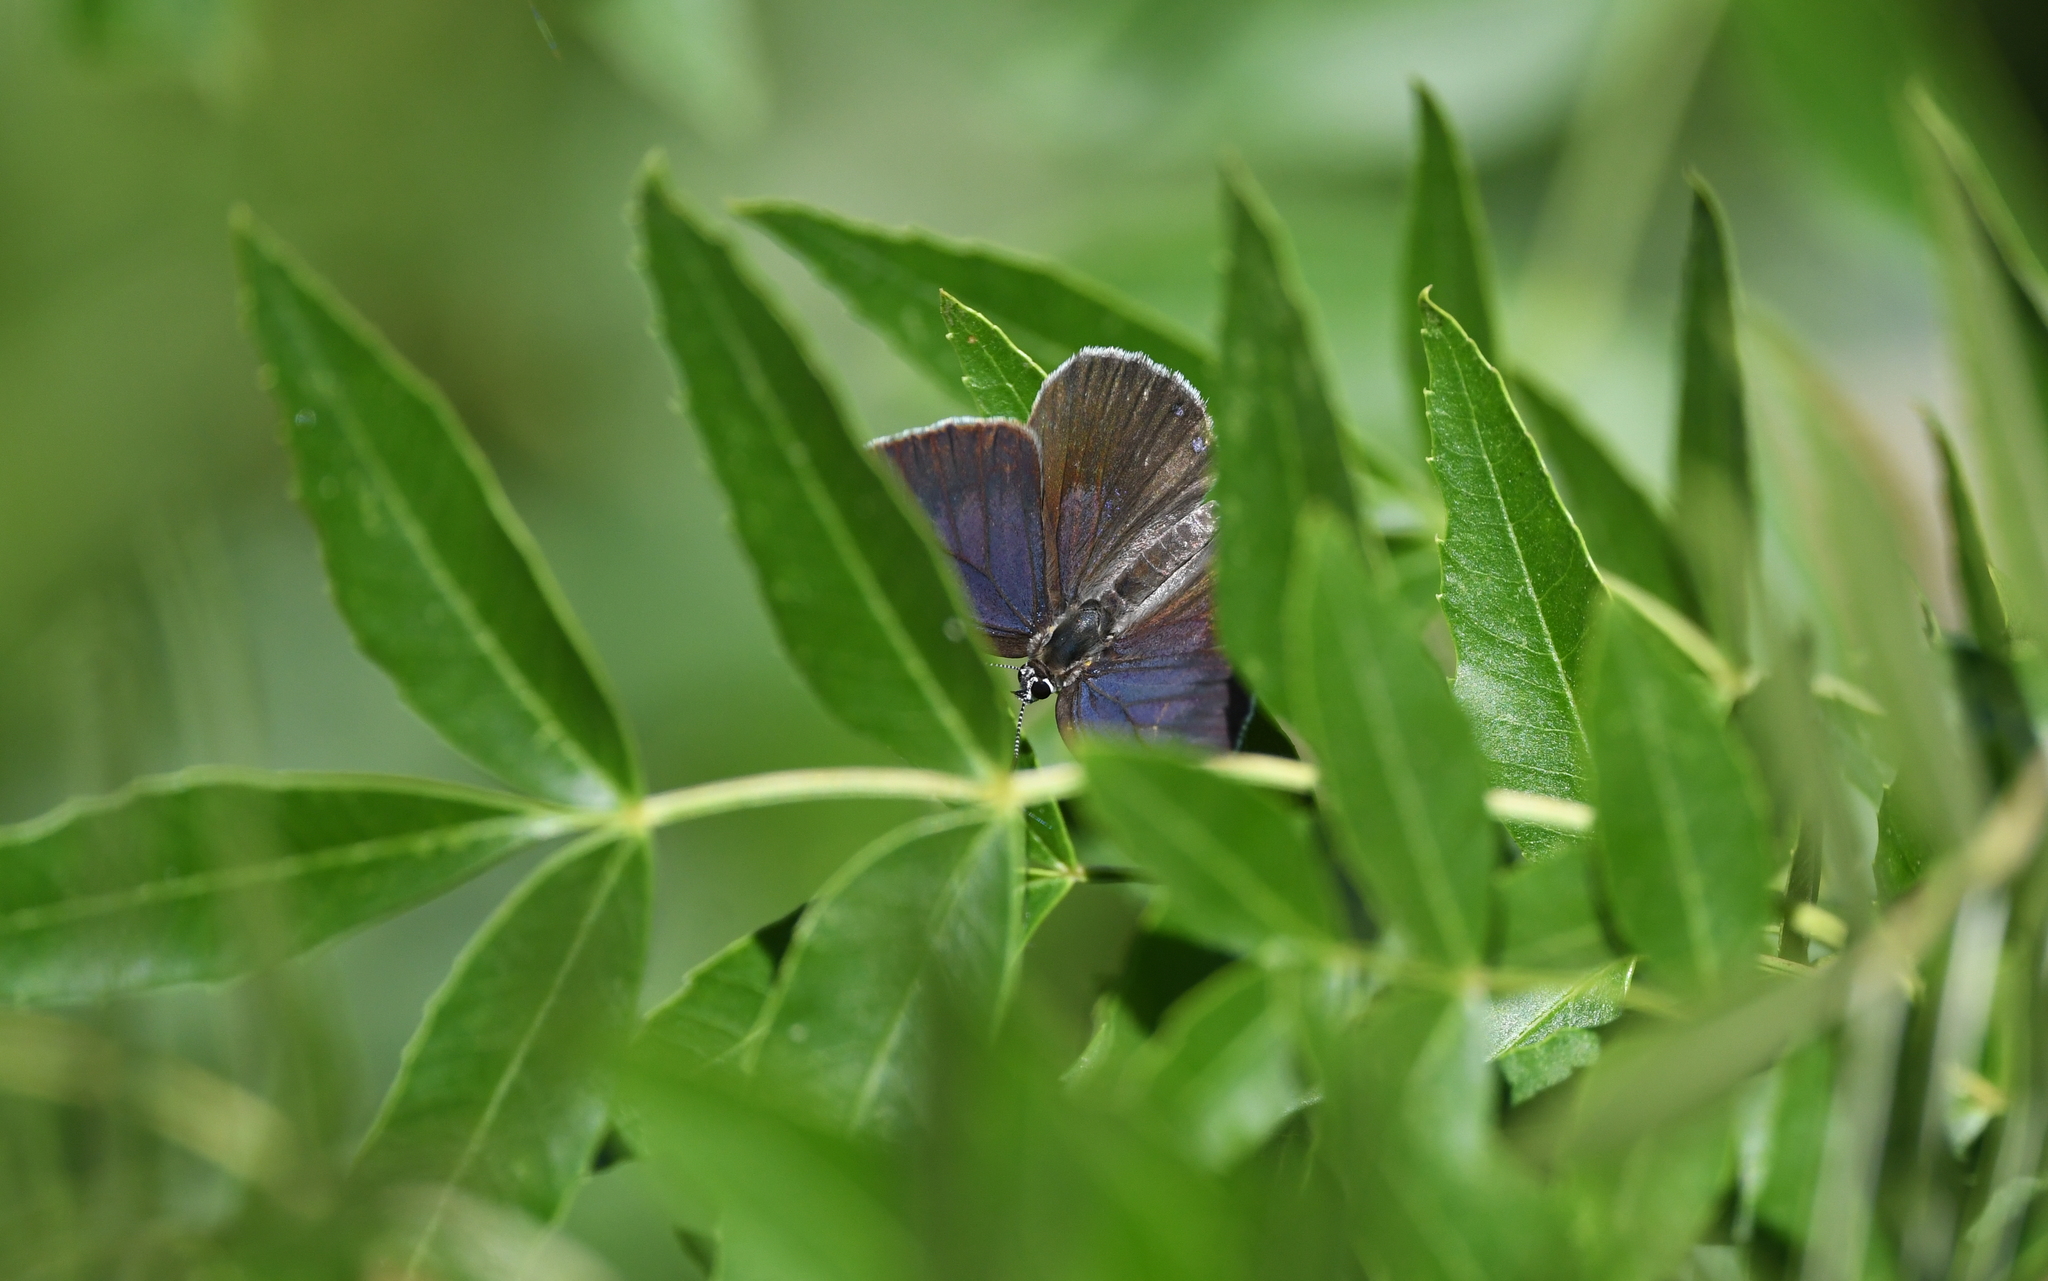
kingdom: Animalia
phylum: Arthropoda
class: Insecta
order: Lepidoptera
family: Lycaenidae
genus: Laeosopis
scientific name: Laeosopis roboris
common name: Spanish purple hairstreak
